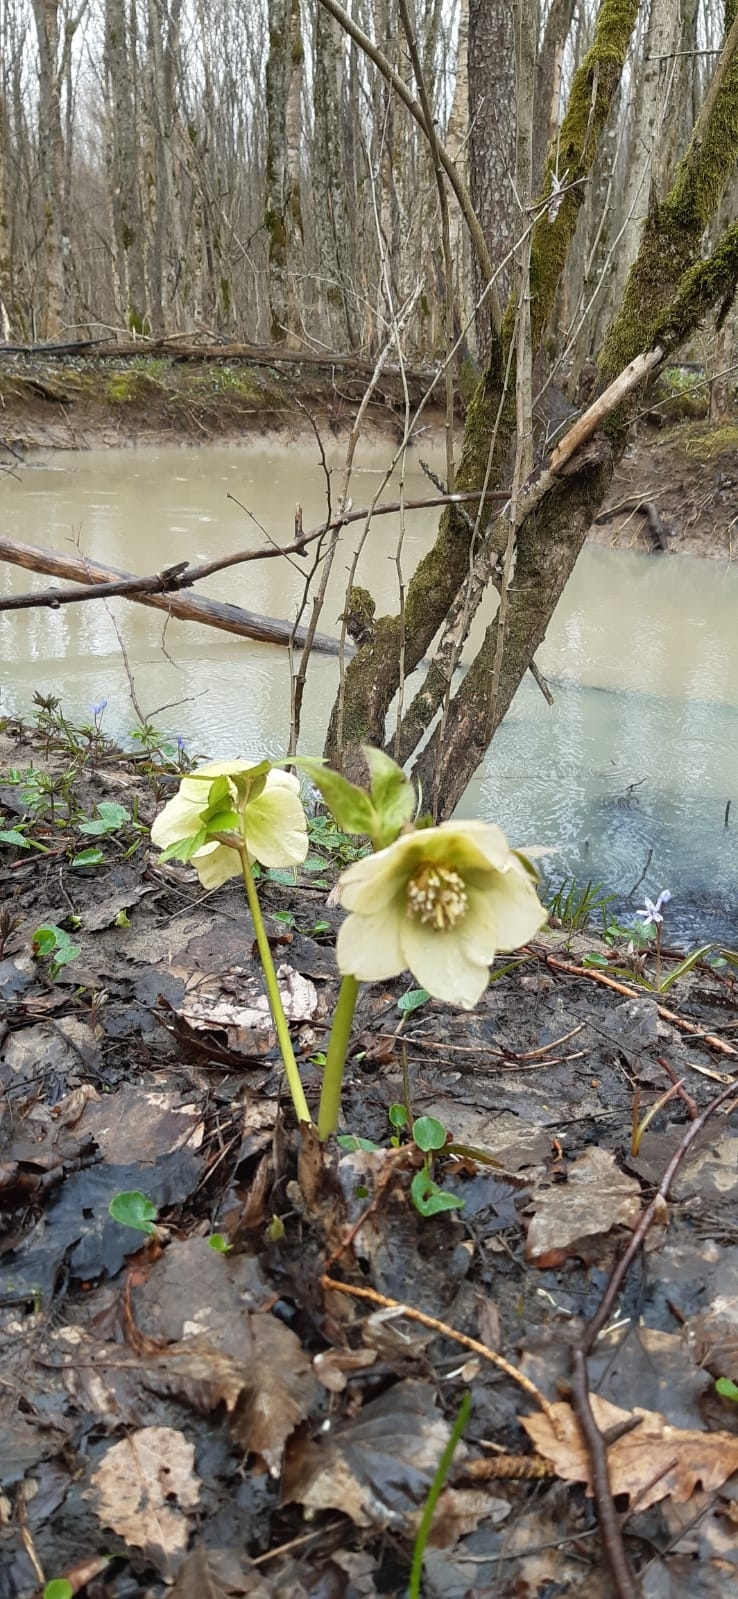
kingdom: Plantae
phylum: Tracheophyta
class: Magnoliopsida
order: Ranunculales
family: Ranunculaceae
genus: Helleborus
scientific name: Helleborus orientalis
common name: Lenten-rose
